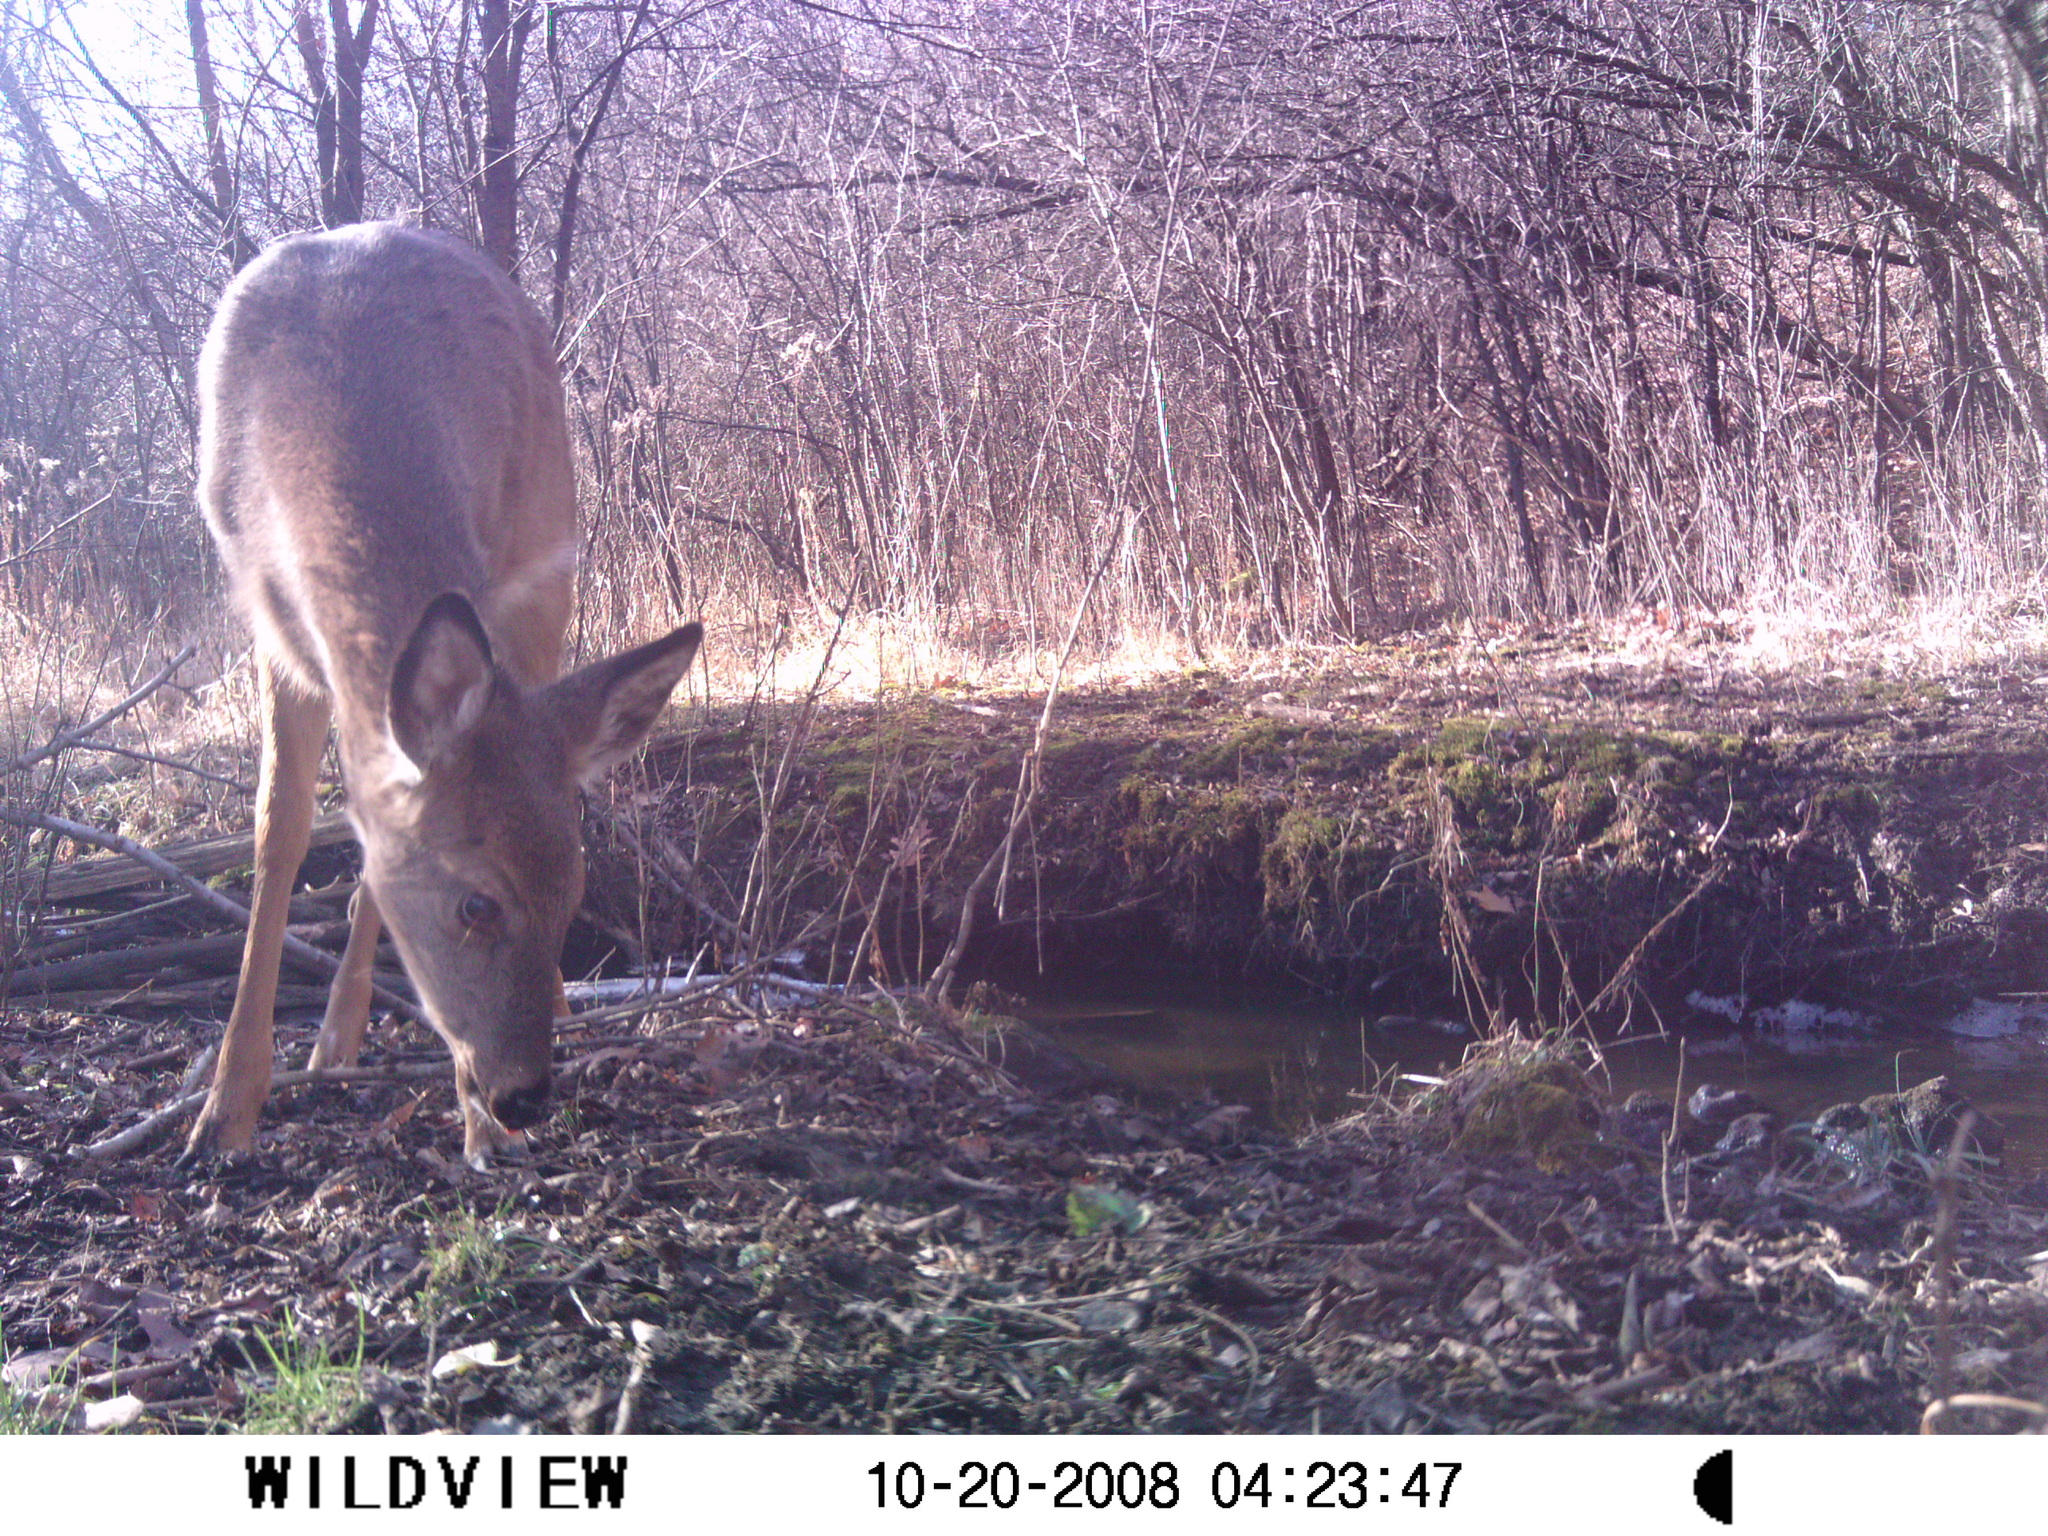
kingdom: Animalia
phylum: Chordata
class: Mammalia
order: Artiodactyla
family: Cervidae
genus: Odocoileus
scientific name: Odocoileus virginianus
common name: White-tailed deer
